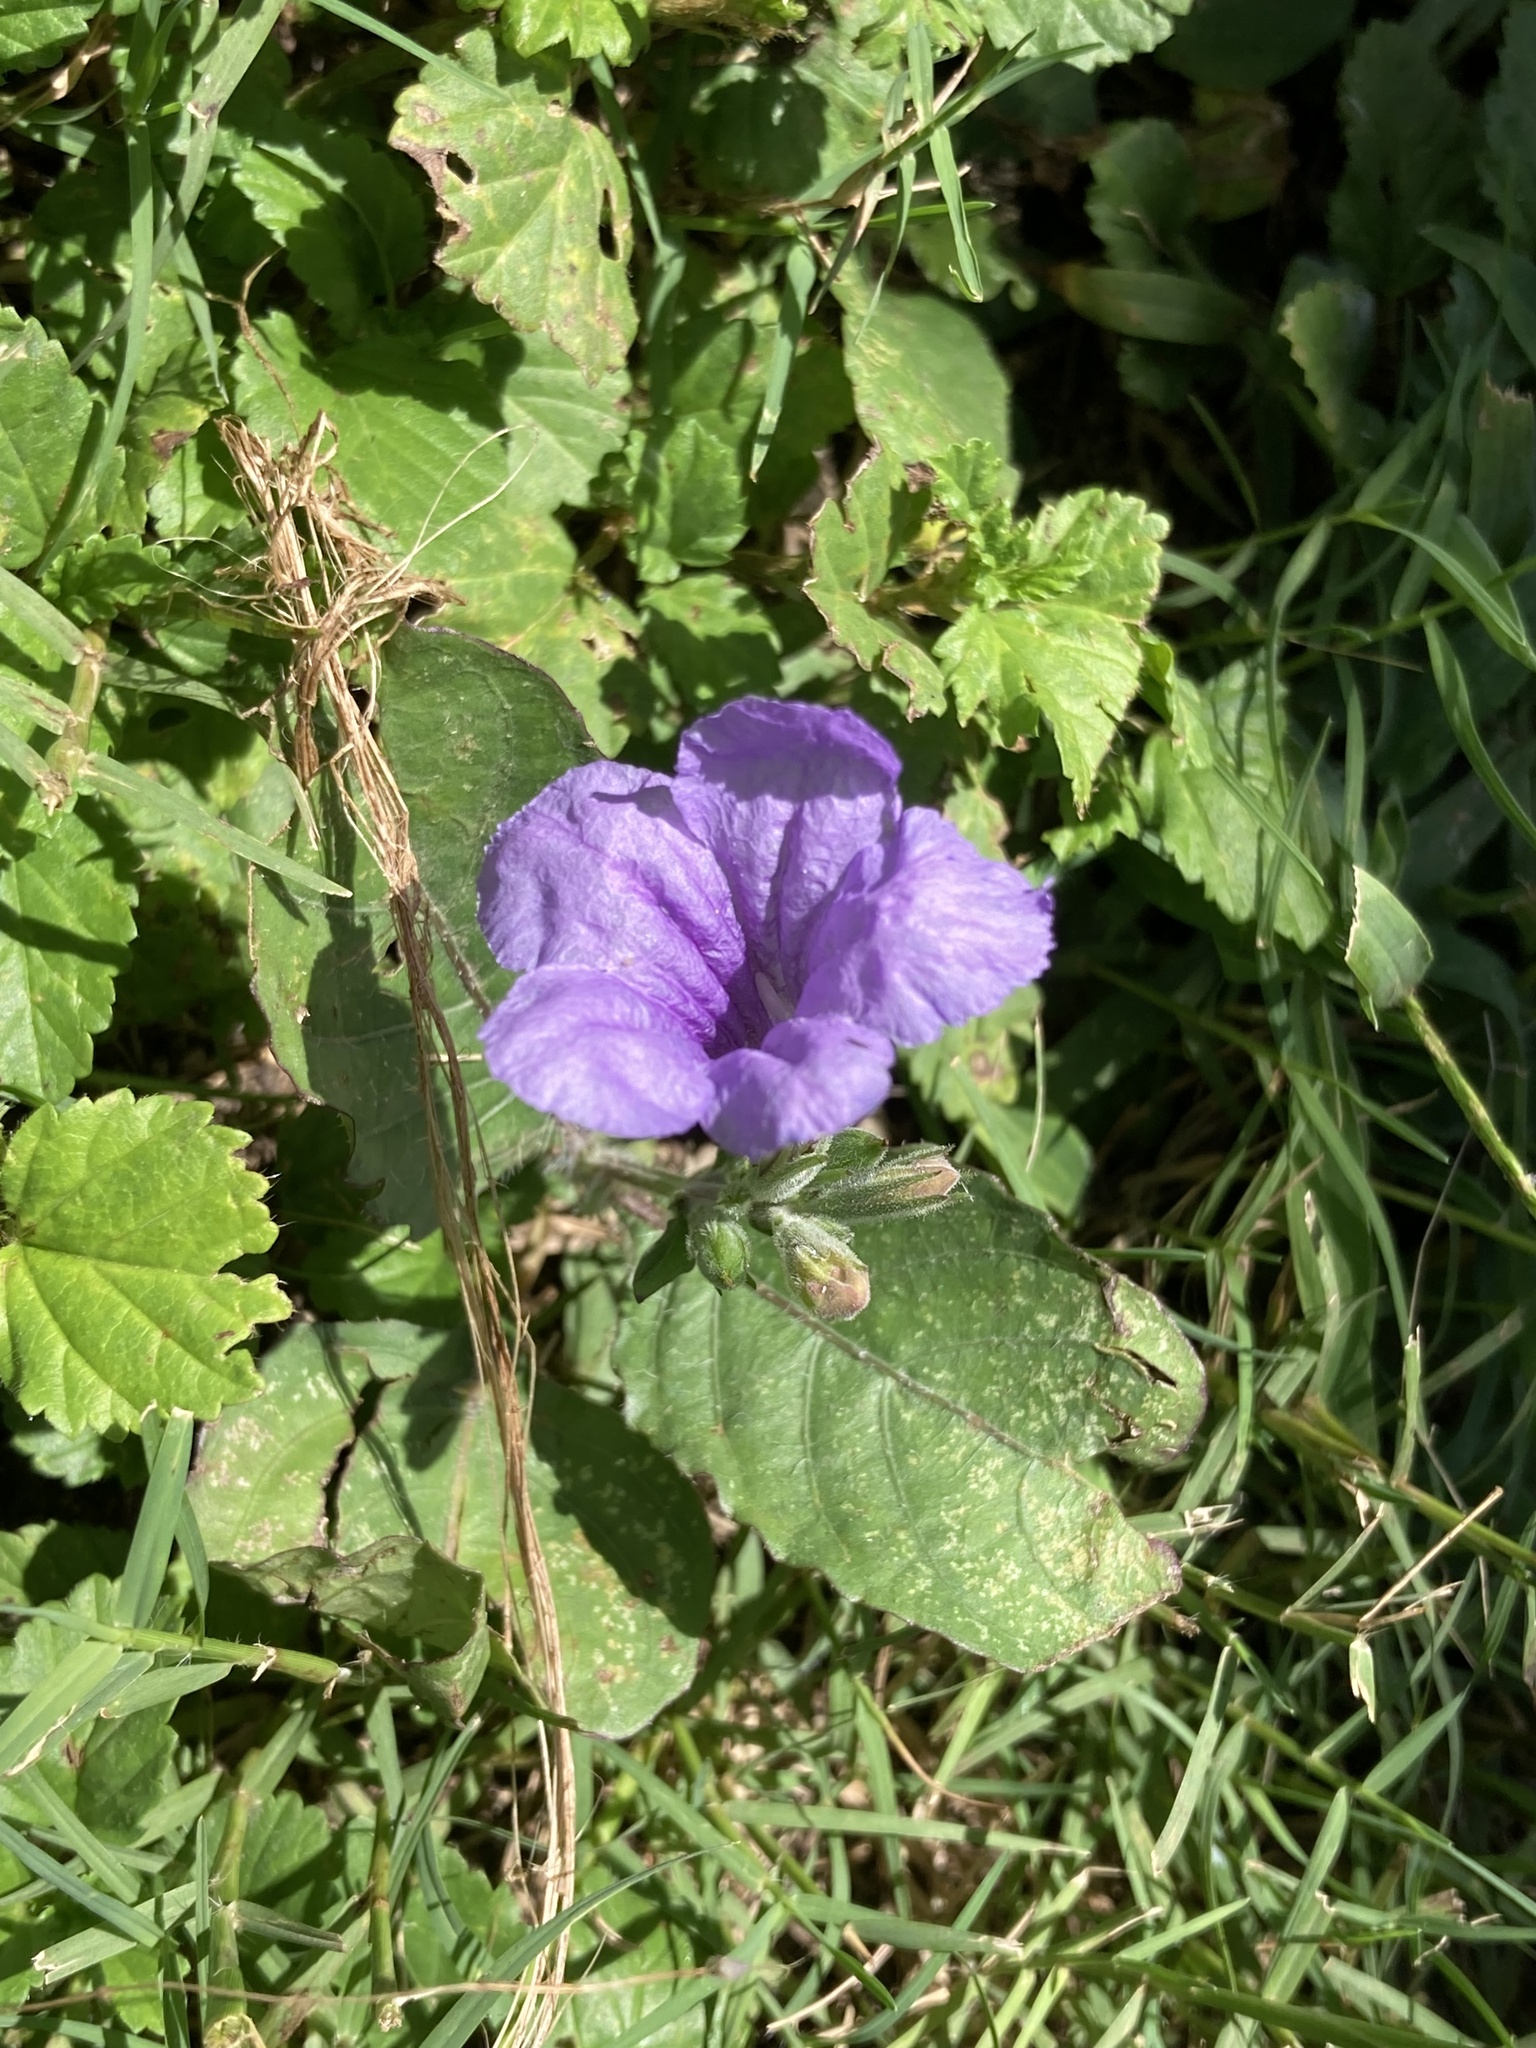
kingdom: Plantae
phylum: Tracheophyta
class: Magnoliopsida
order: Lamiales
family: Acanthaceae
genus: Ruellia
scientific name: Ruellia ciliatiflora
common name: Hairyflower wild petunia
